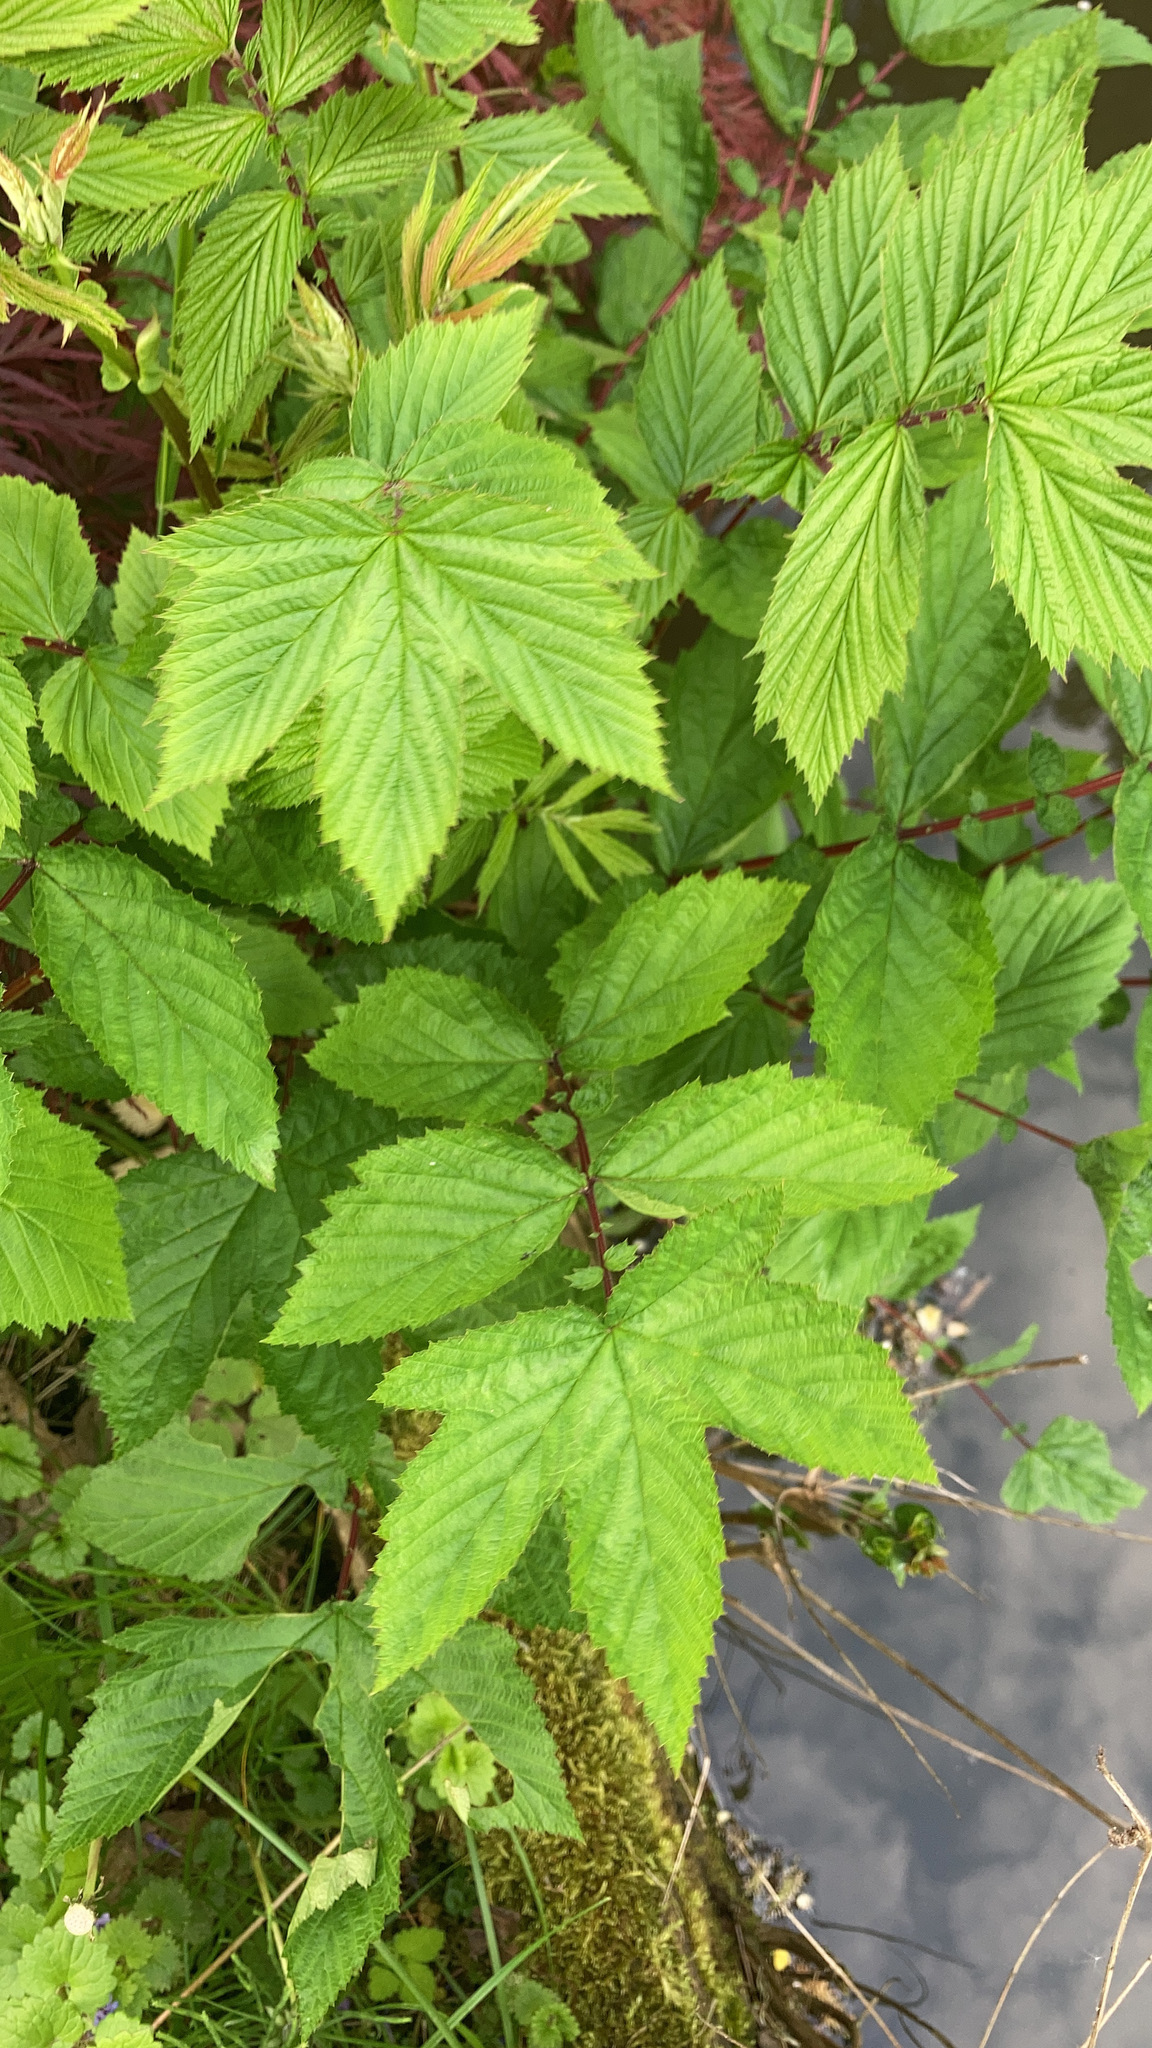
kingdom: Plantae
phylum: Tracheophyta
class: Magnoliopsida
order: Rosales
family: Rosaceae
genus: Filipendula
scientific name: Filipendula ulmaria
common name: Meadowsweet
